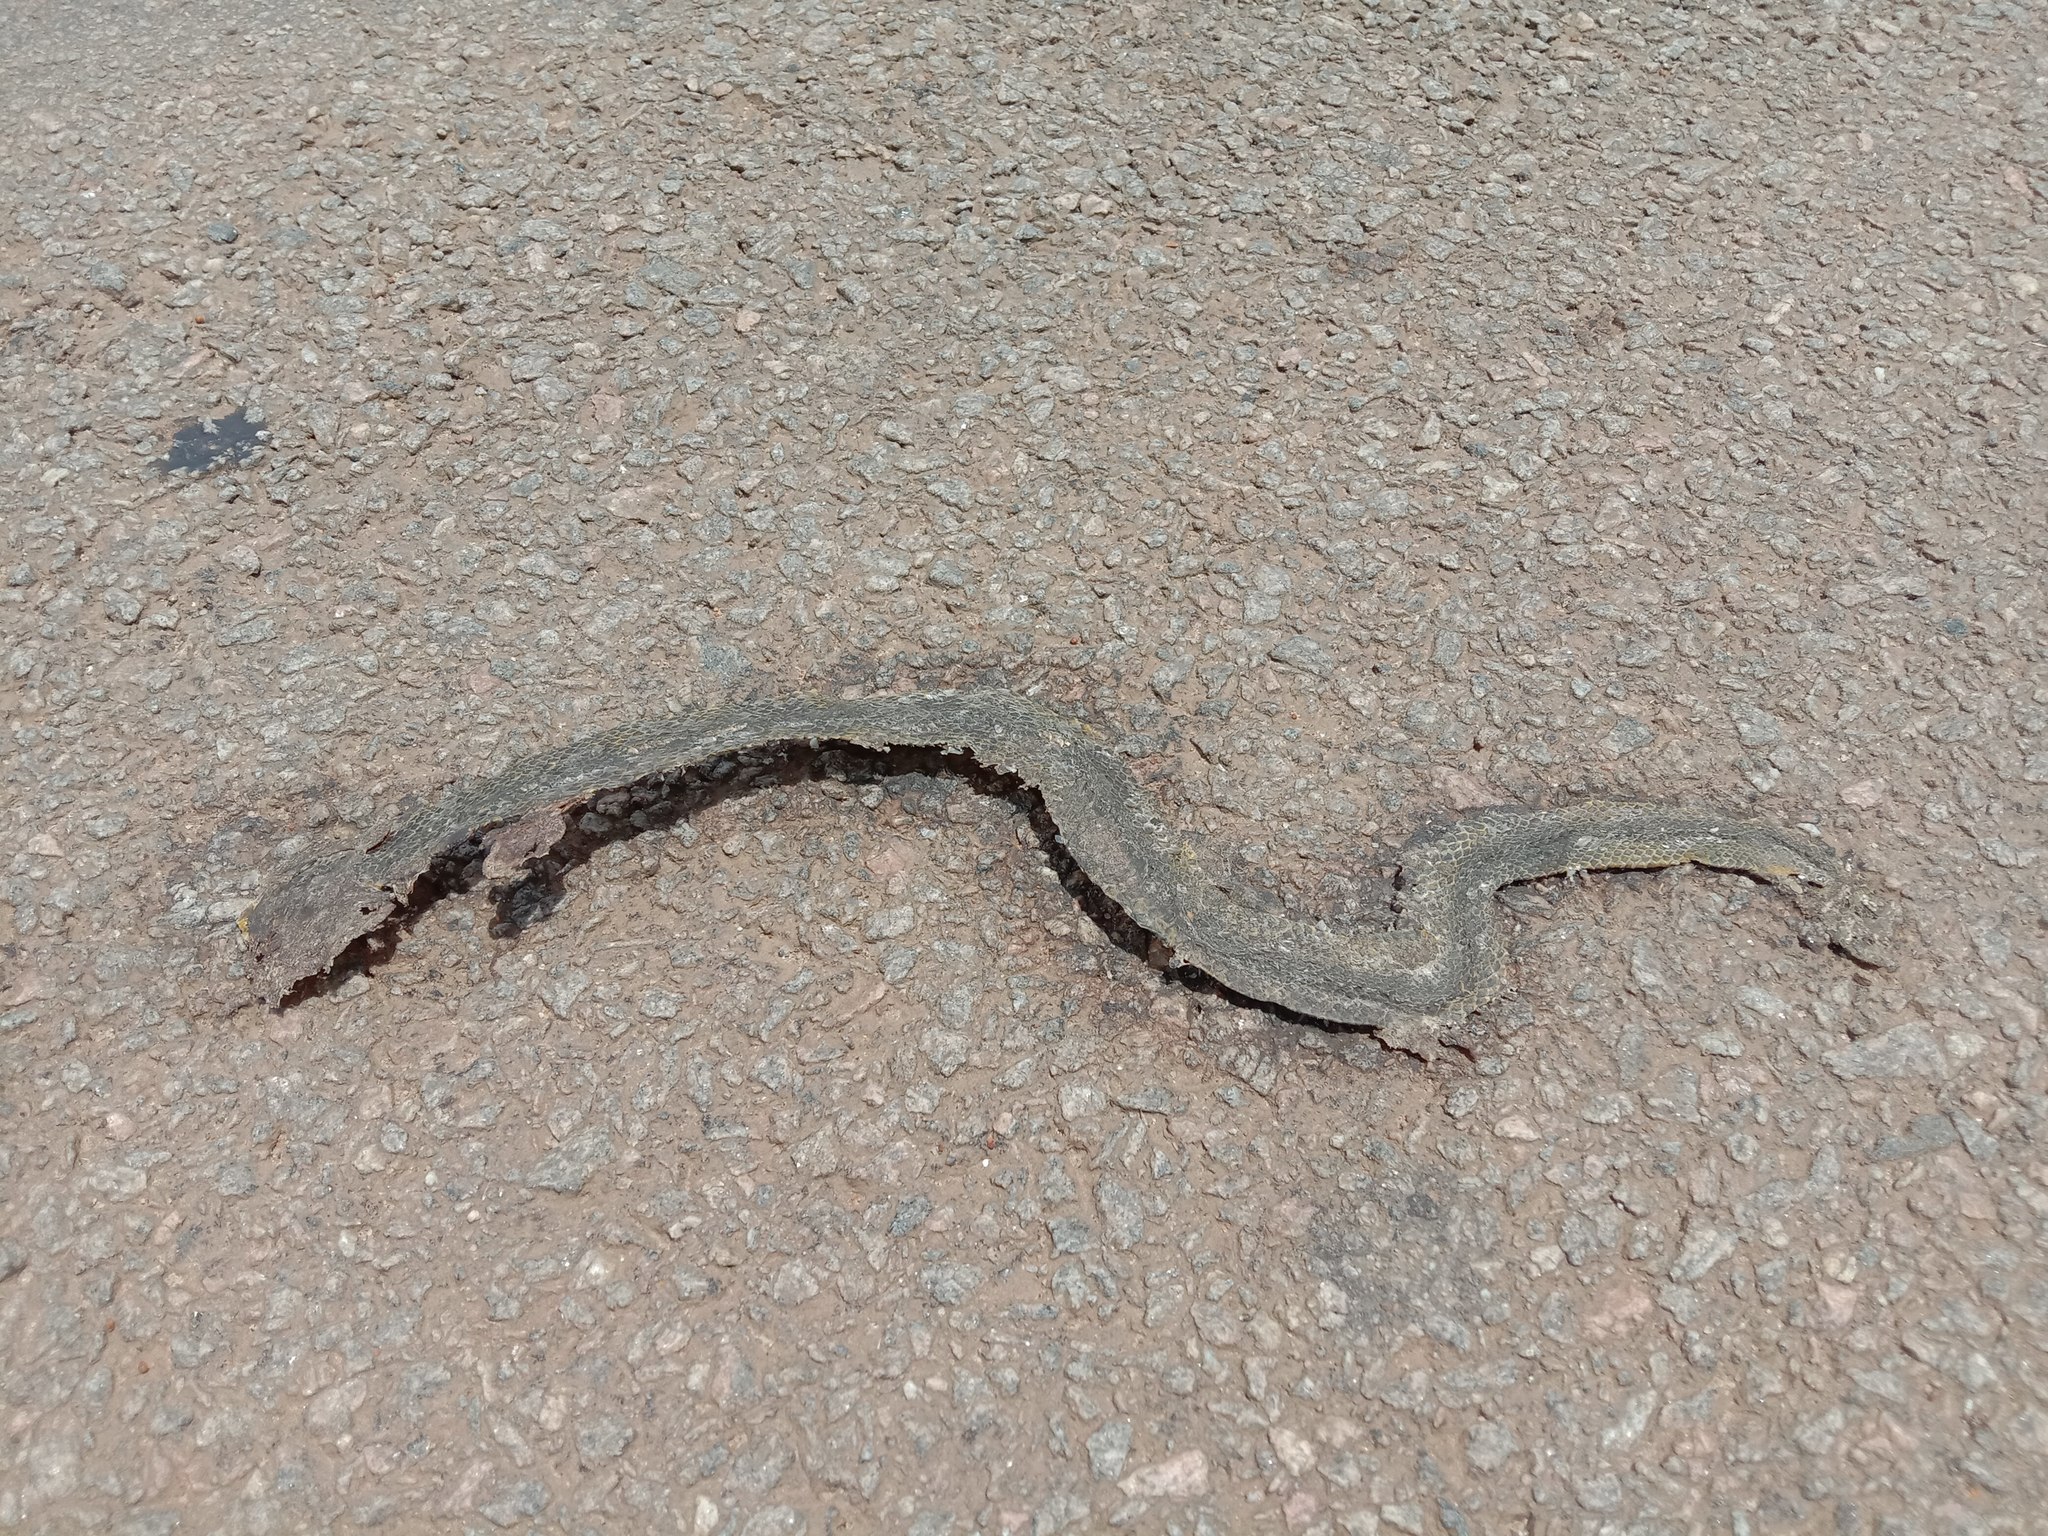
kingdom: Animalia
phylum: Chordata
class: Squamata
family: Viperidae
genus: Craspedocephalus
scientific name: Craspedocephalus gramineus
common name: Common bamboo viper
